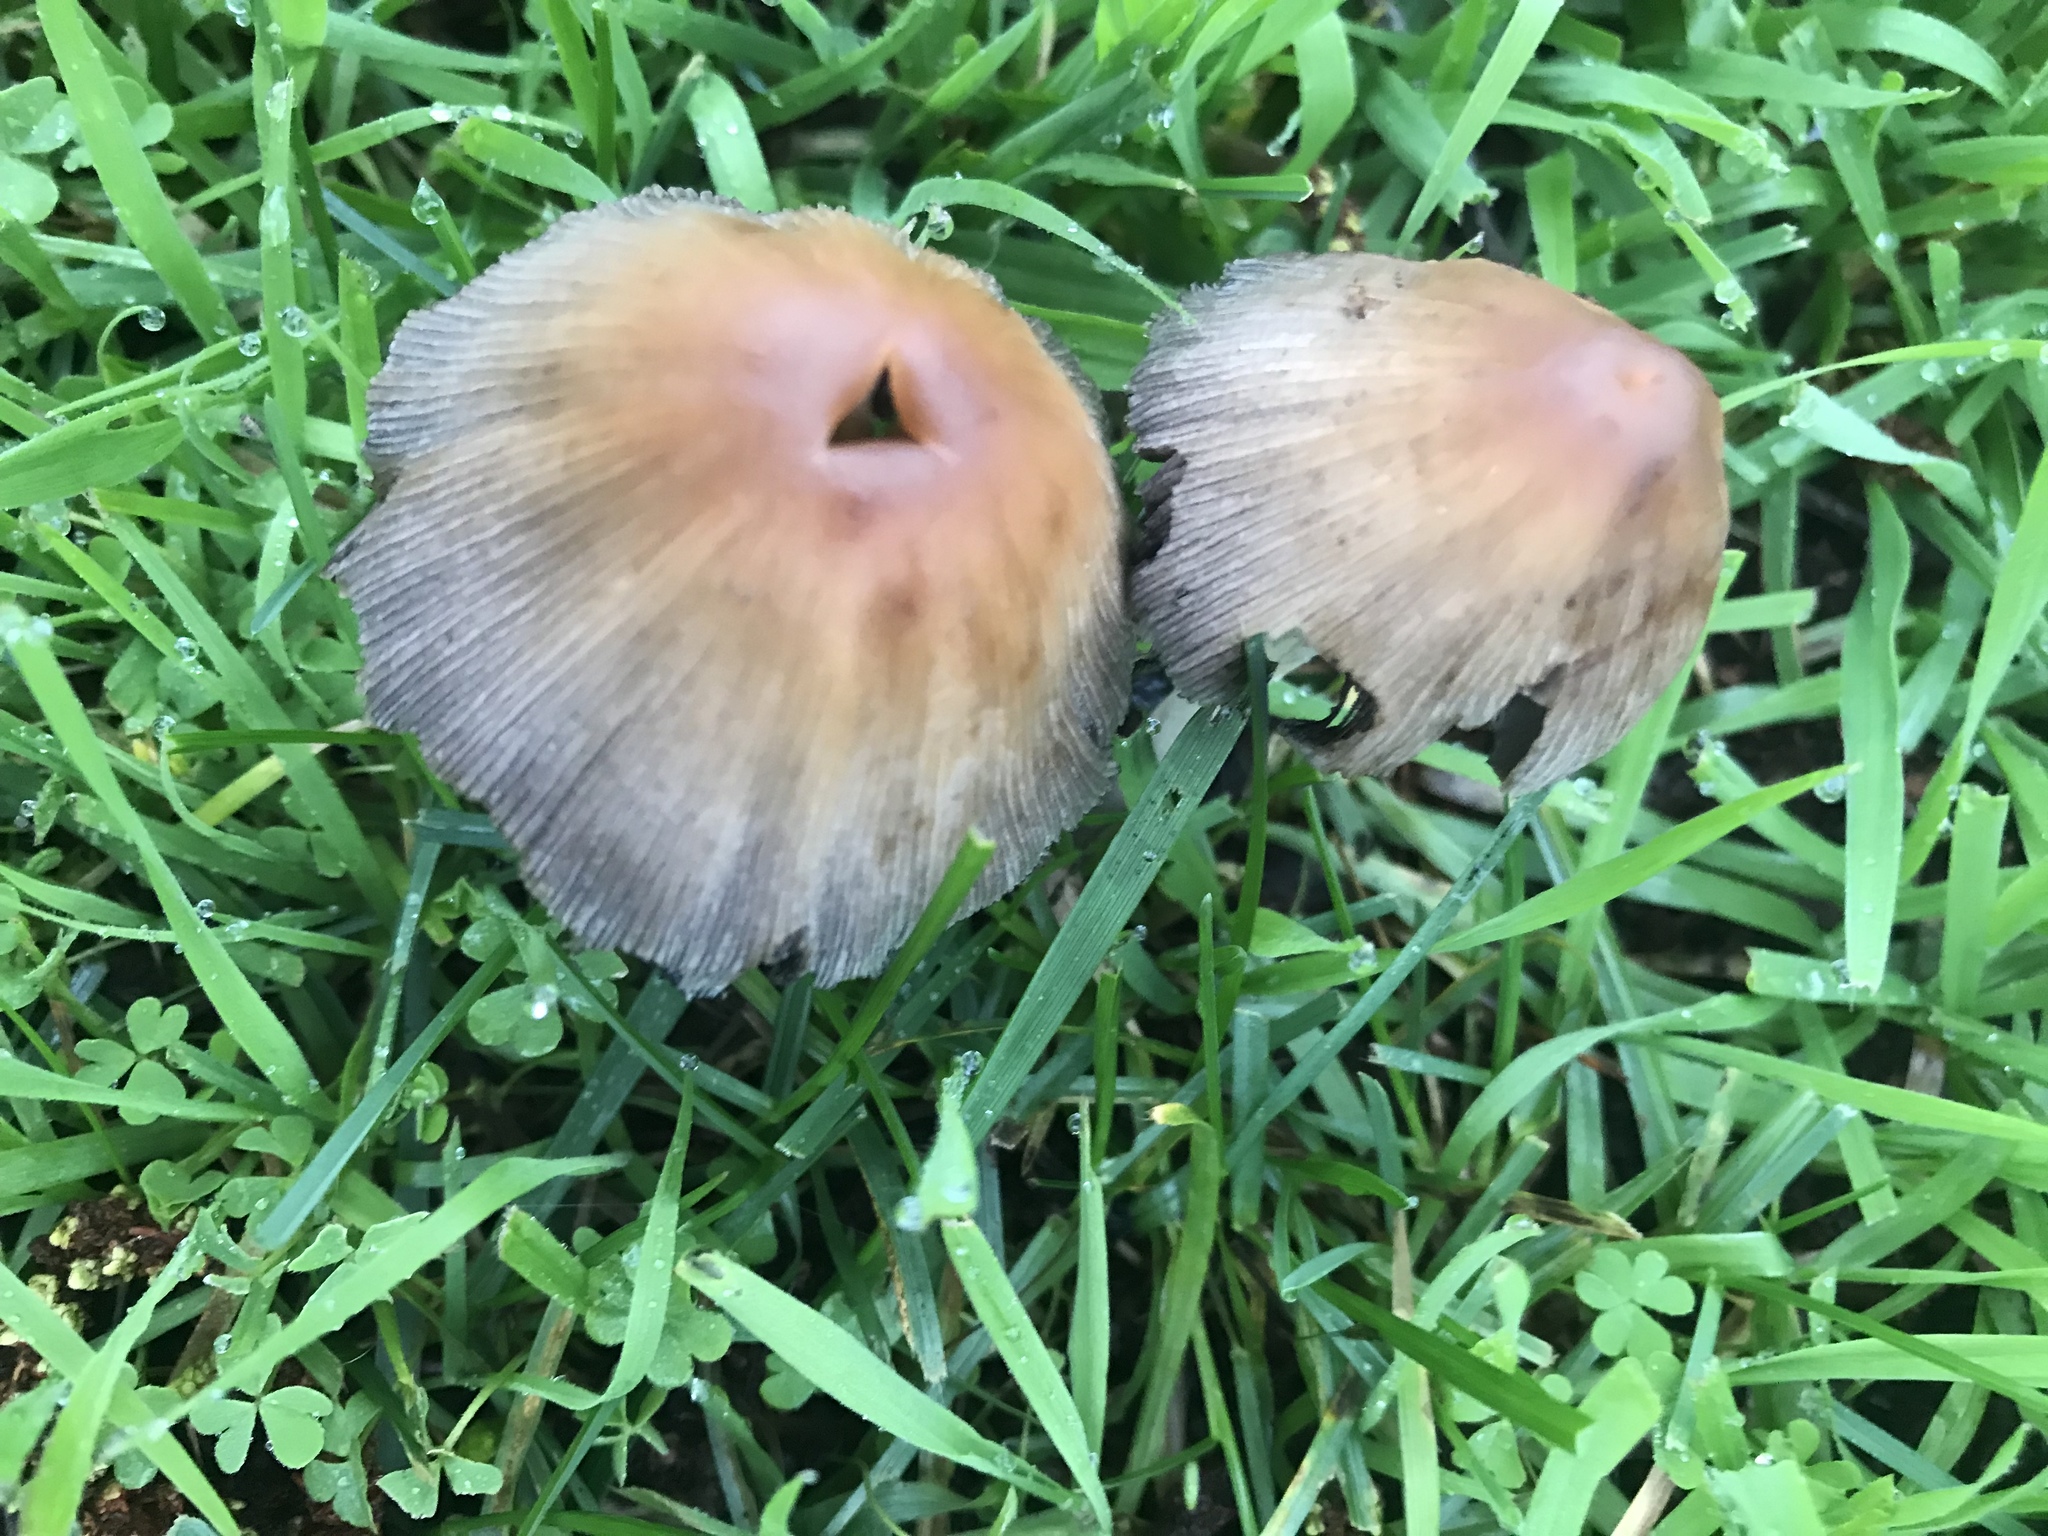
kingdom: Fungi
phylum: Basidiomycota
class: Agaricomycetes
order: Agaricales
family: Psathyrellaceae
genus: Coprinellus
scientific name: Coprinellus micaceus
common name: Glistening ink-cap
